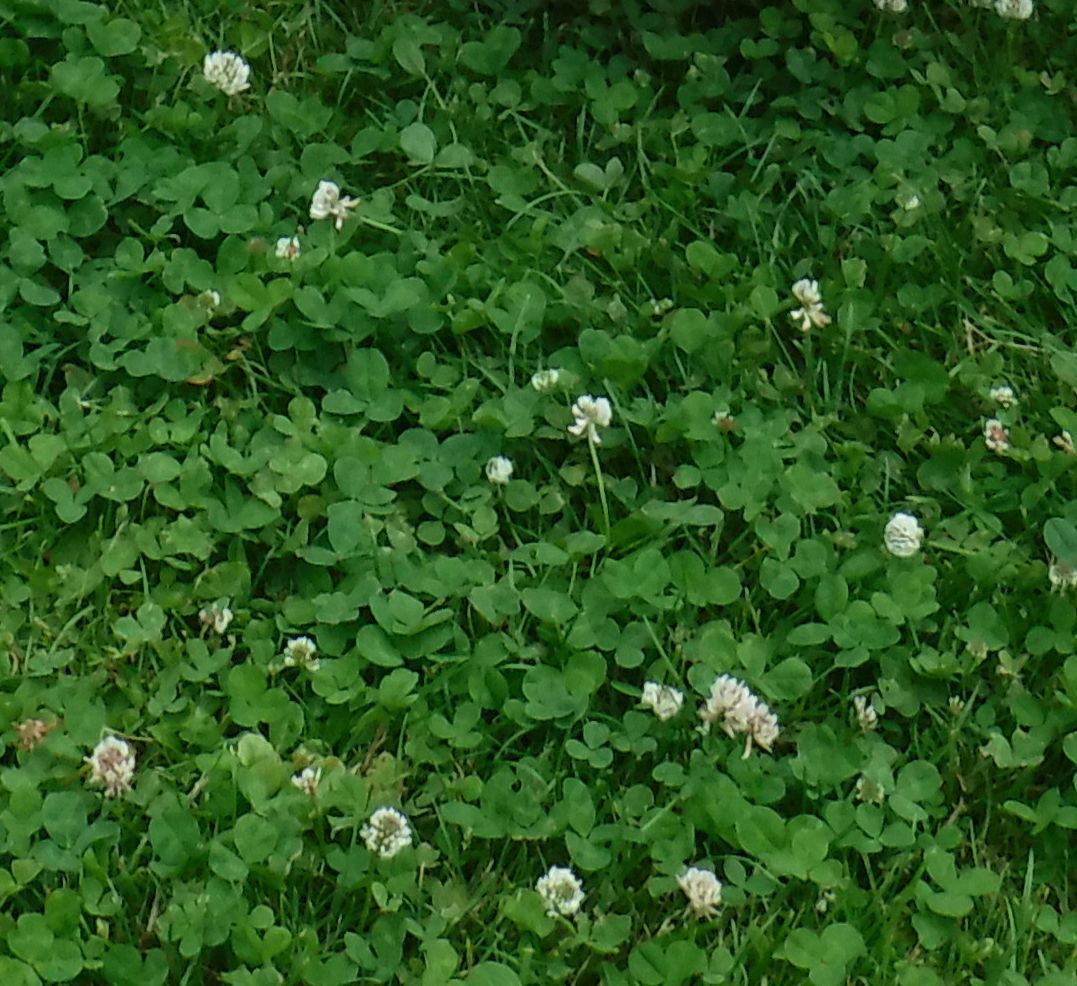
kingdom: Plantae
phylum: Tracheophyta
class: Magnoliopsida
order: Fabales
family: Fabaceae
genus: Trifolium
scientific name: Trifolium repens
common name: White clover
